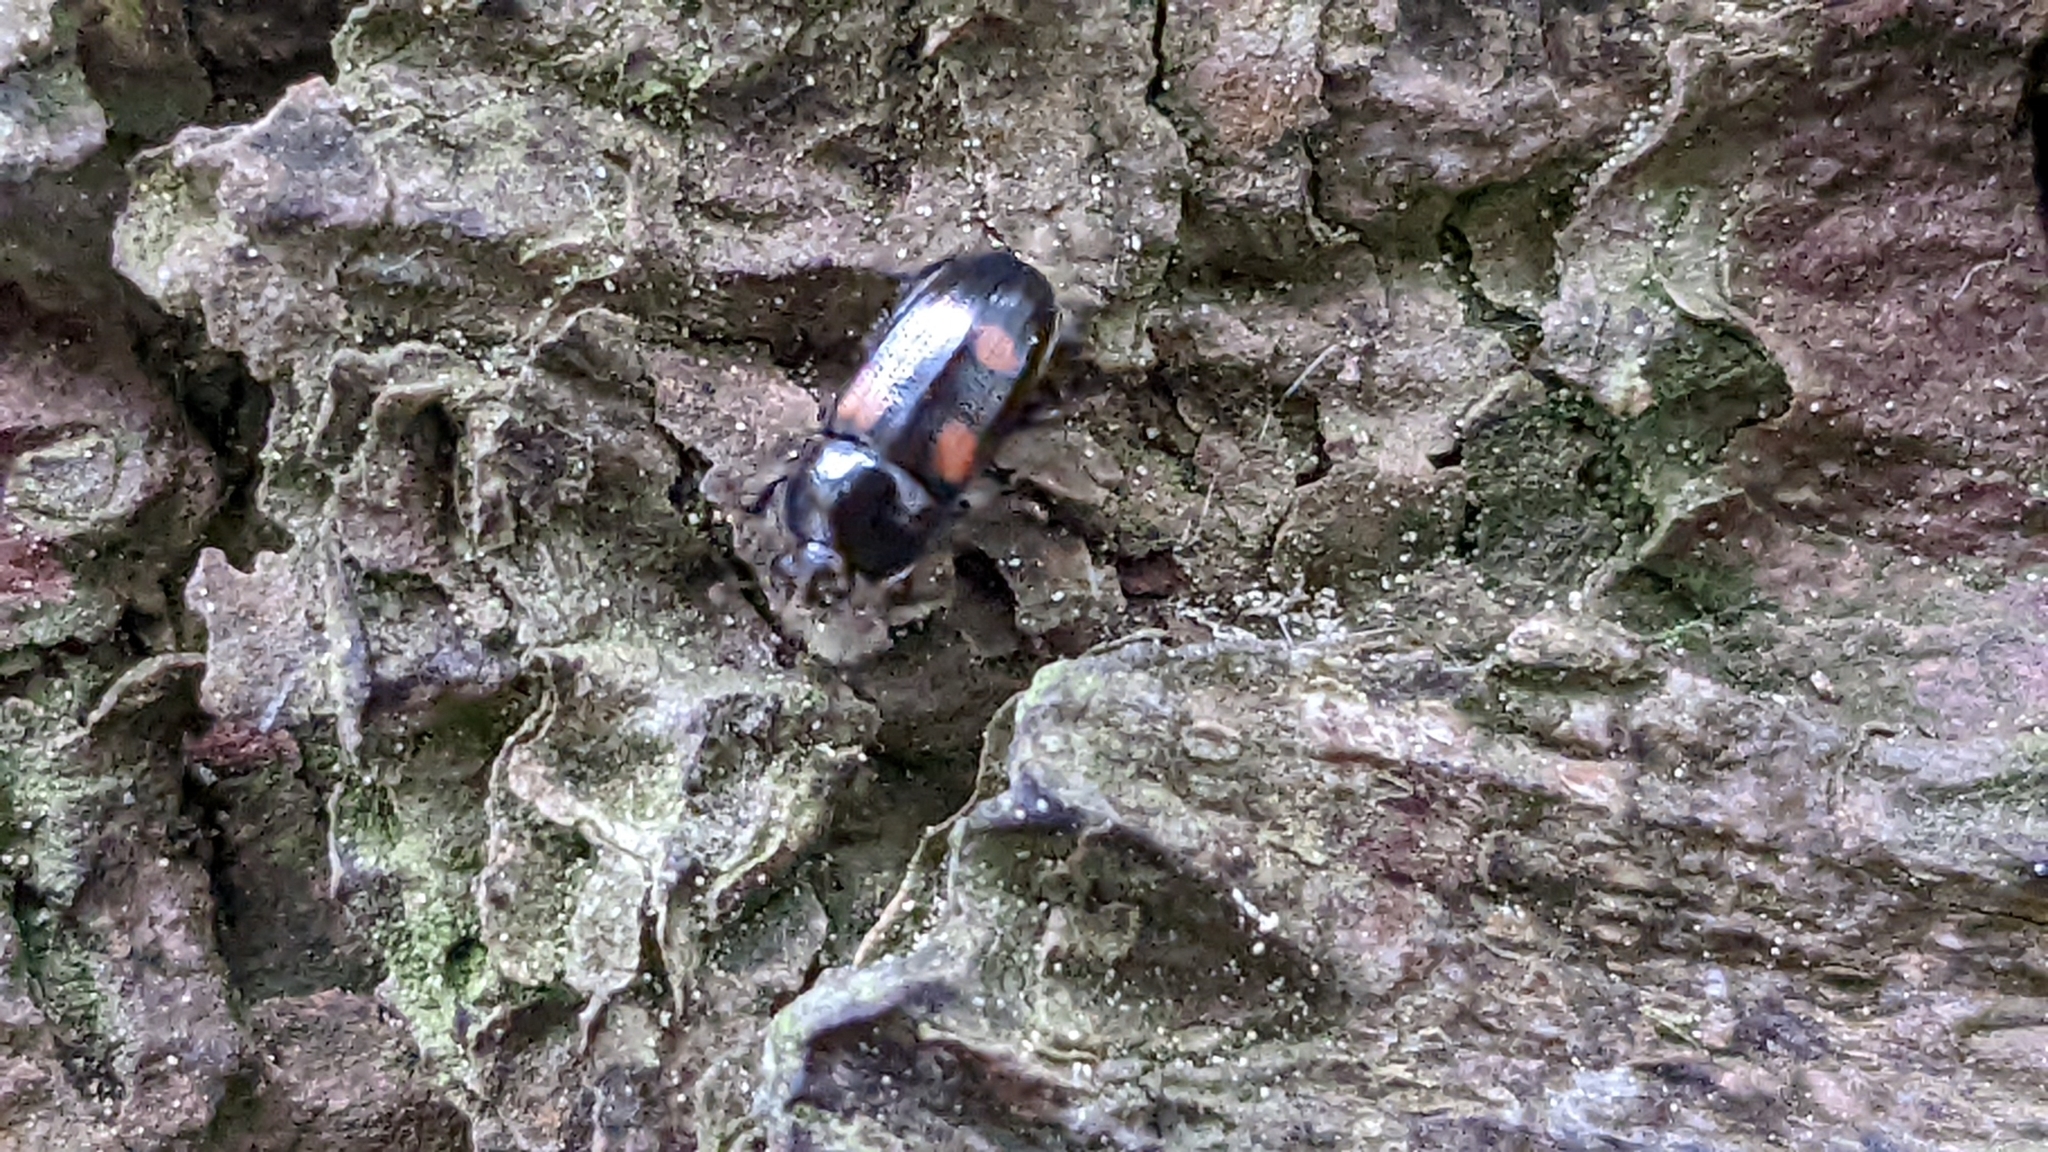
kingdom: Animalia
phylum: Arthropoda
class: Insecta
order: Coleoptera
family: Nitidulidae
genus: Ipidia
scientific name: Ipidia binotata
